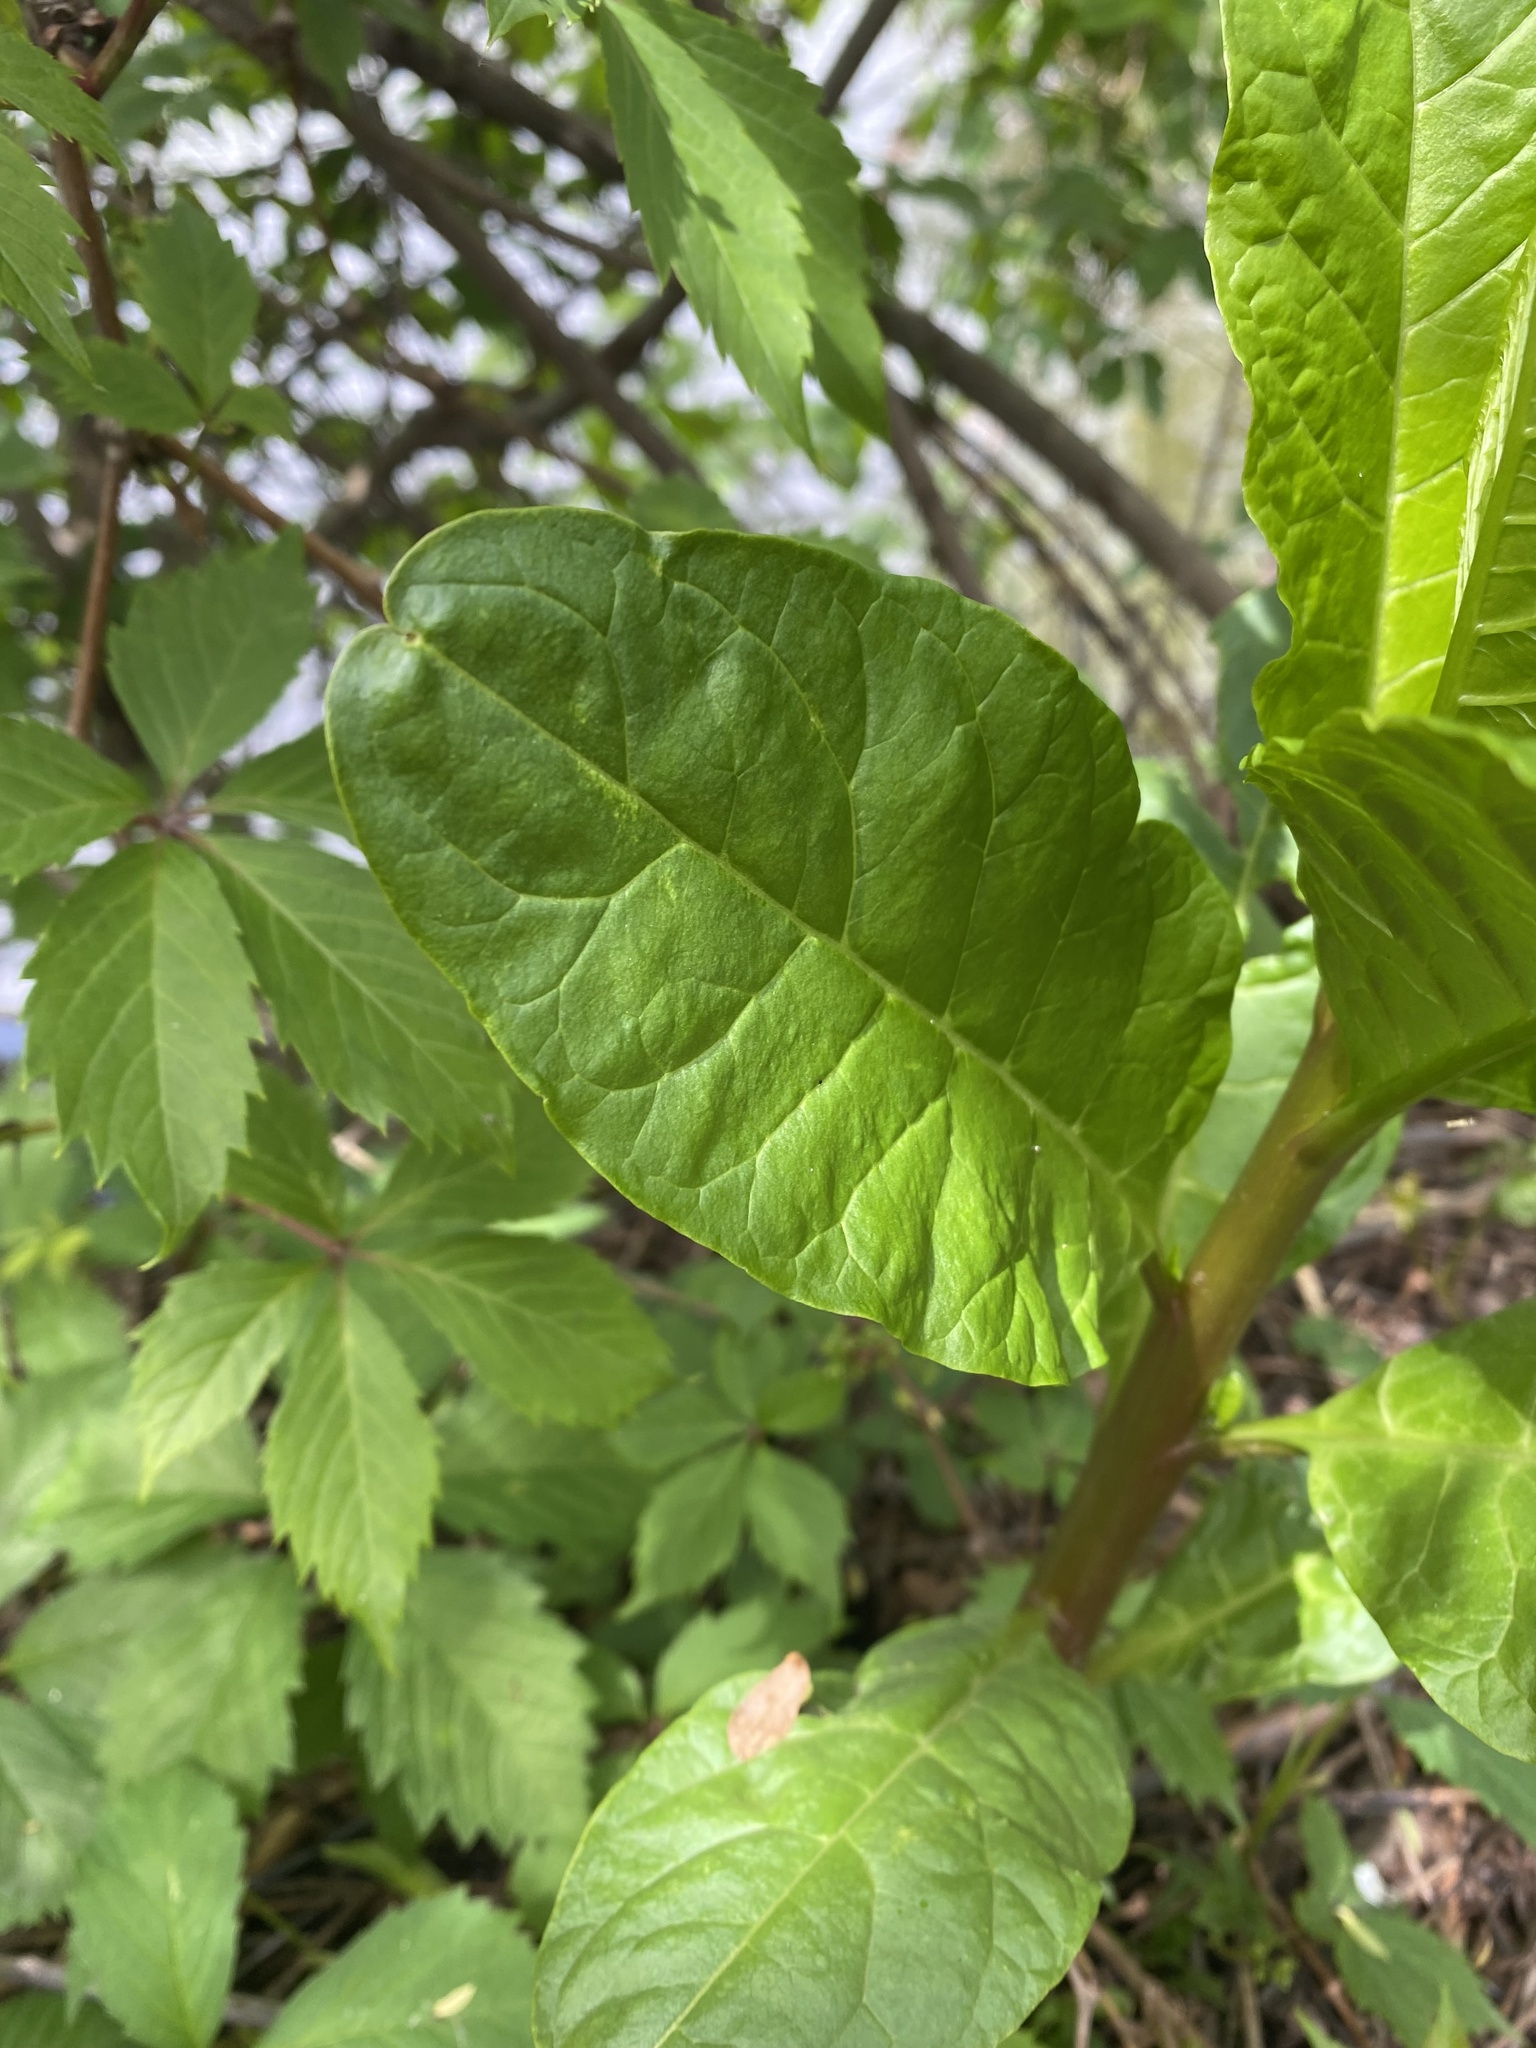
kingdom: Plantae
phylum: Tracheophyta
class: Magnoliopsida
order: Caryophyllales
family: Phytolaccaceae
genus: Phytolacca
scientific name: Phytolacca americana
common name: American pokeweed
